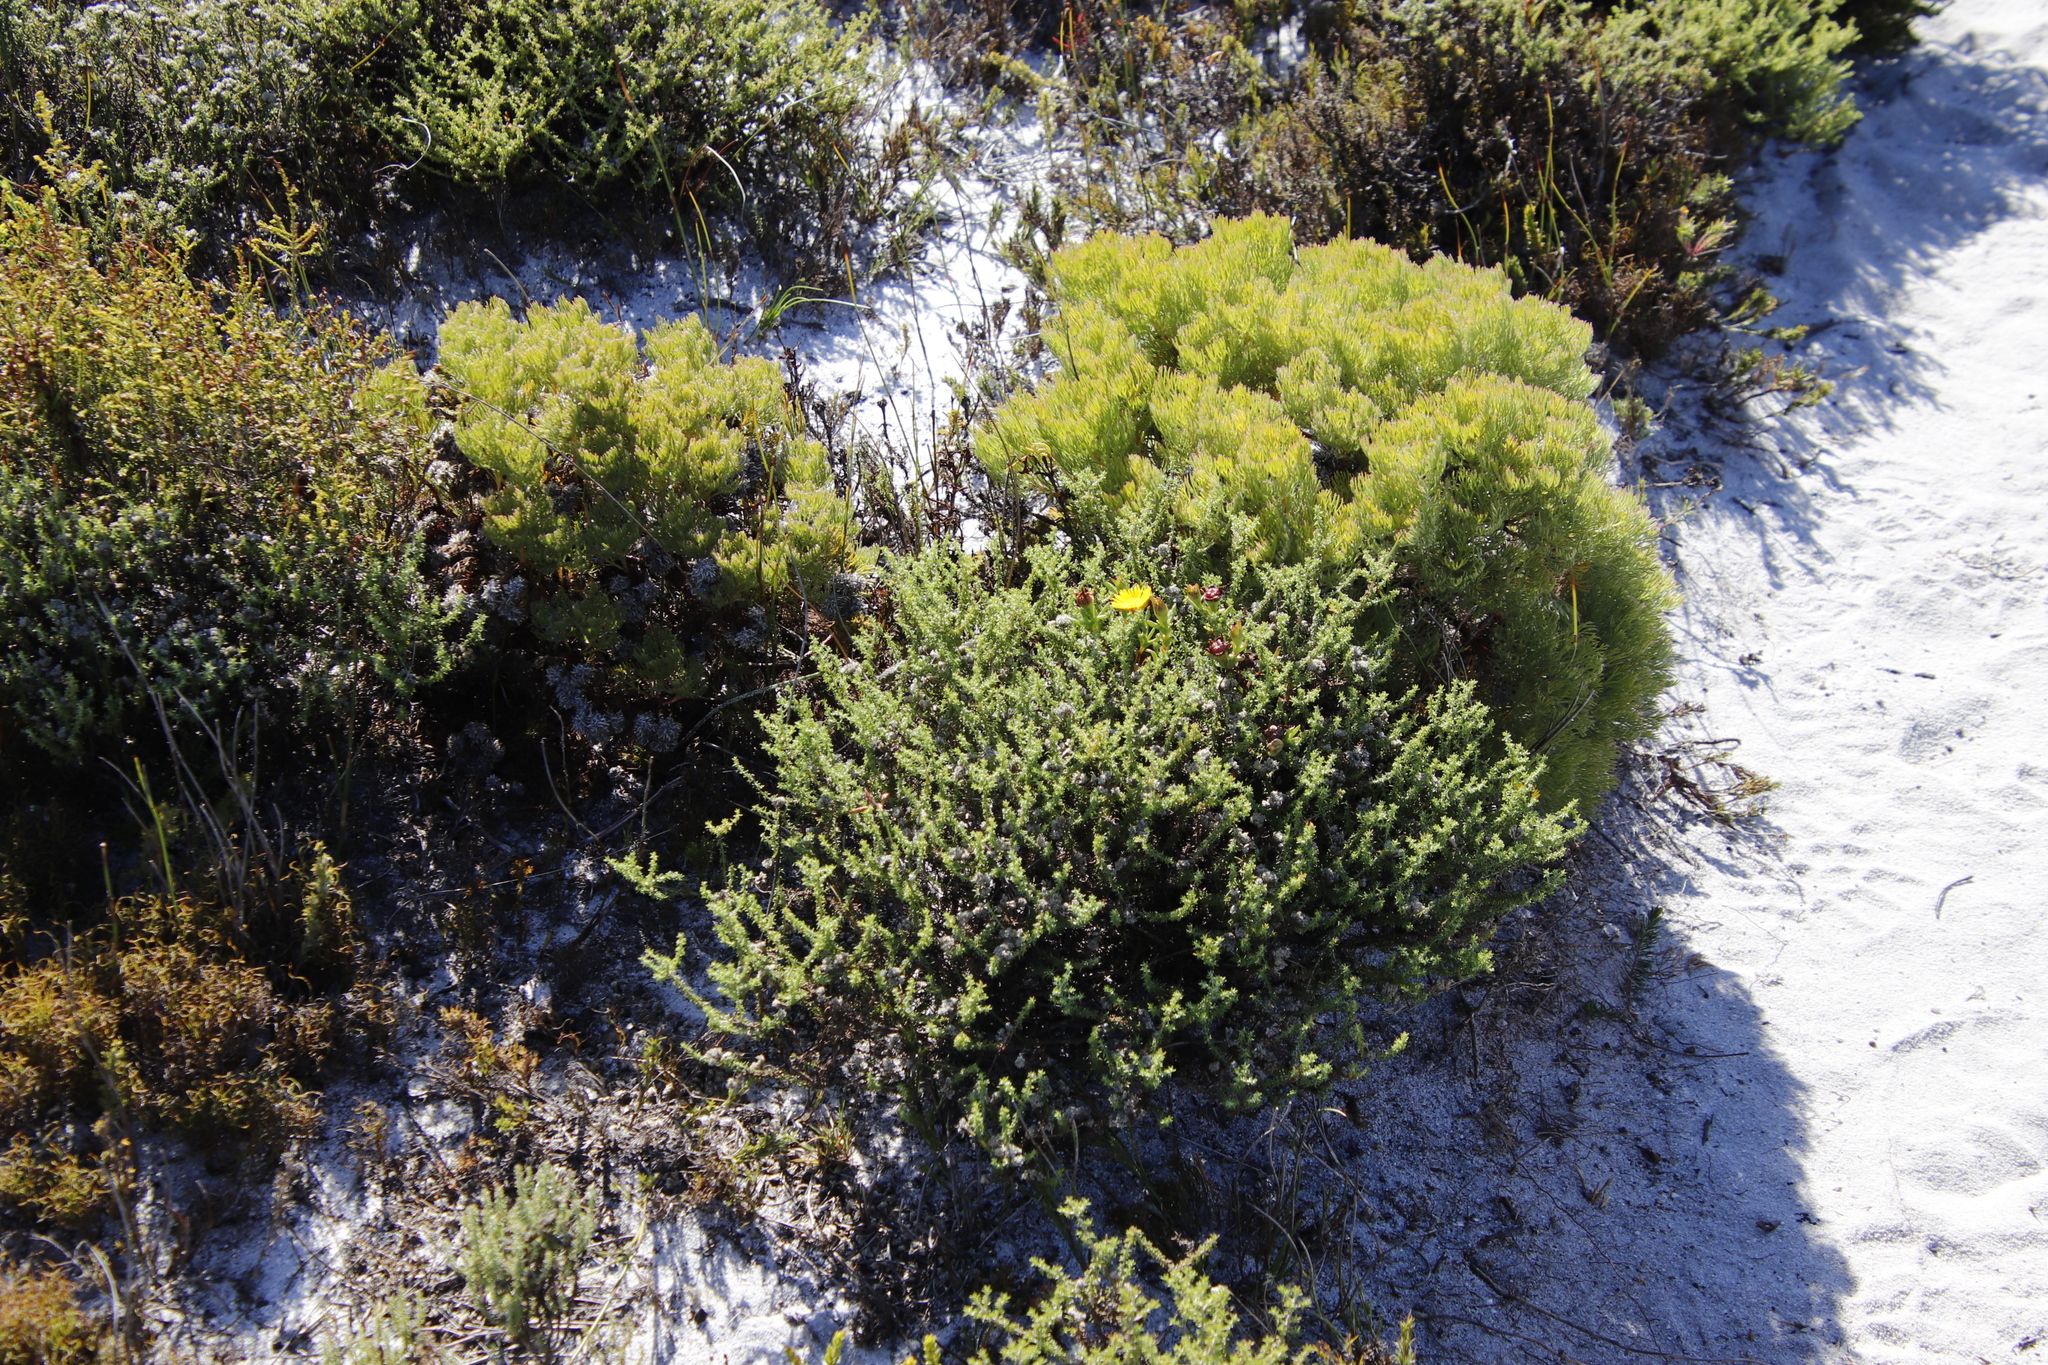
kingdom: Plantae
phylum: Tracheophyta
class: Magnoliopsida
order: Proteales
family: Proteaceae
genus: Serruria
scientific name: Serruria villosa
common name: Golden spiderhead
